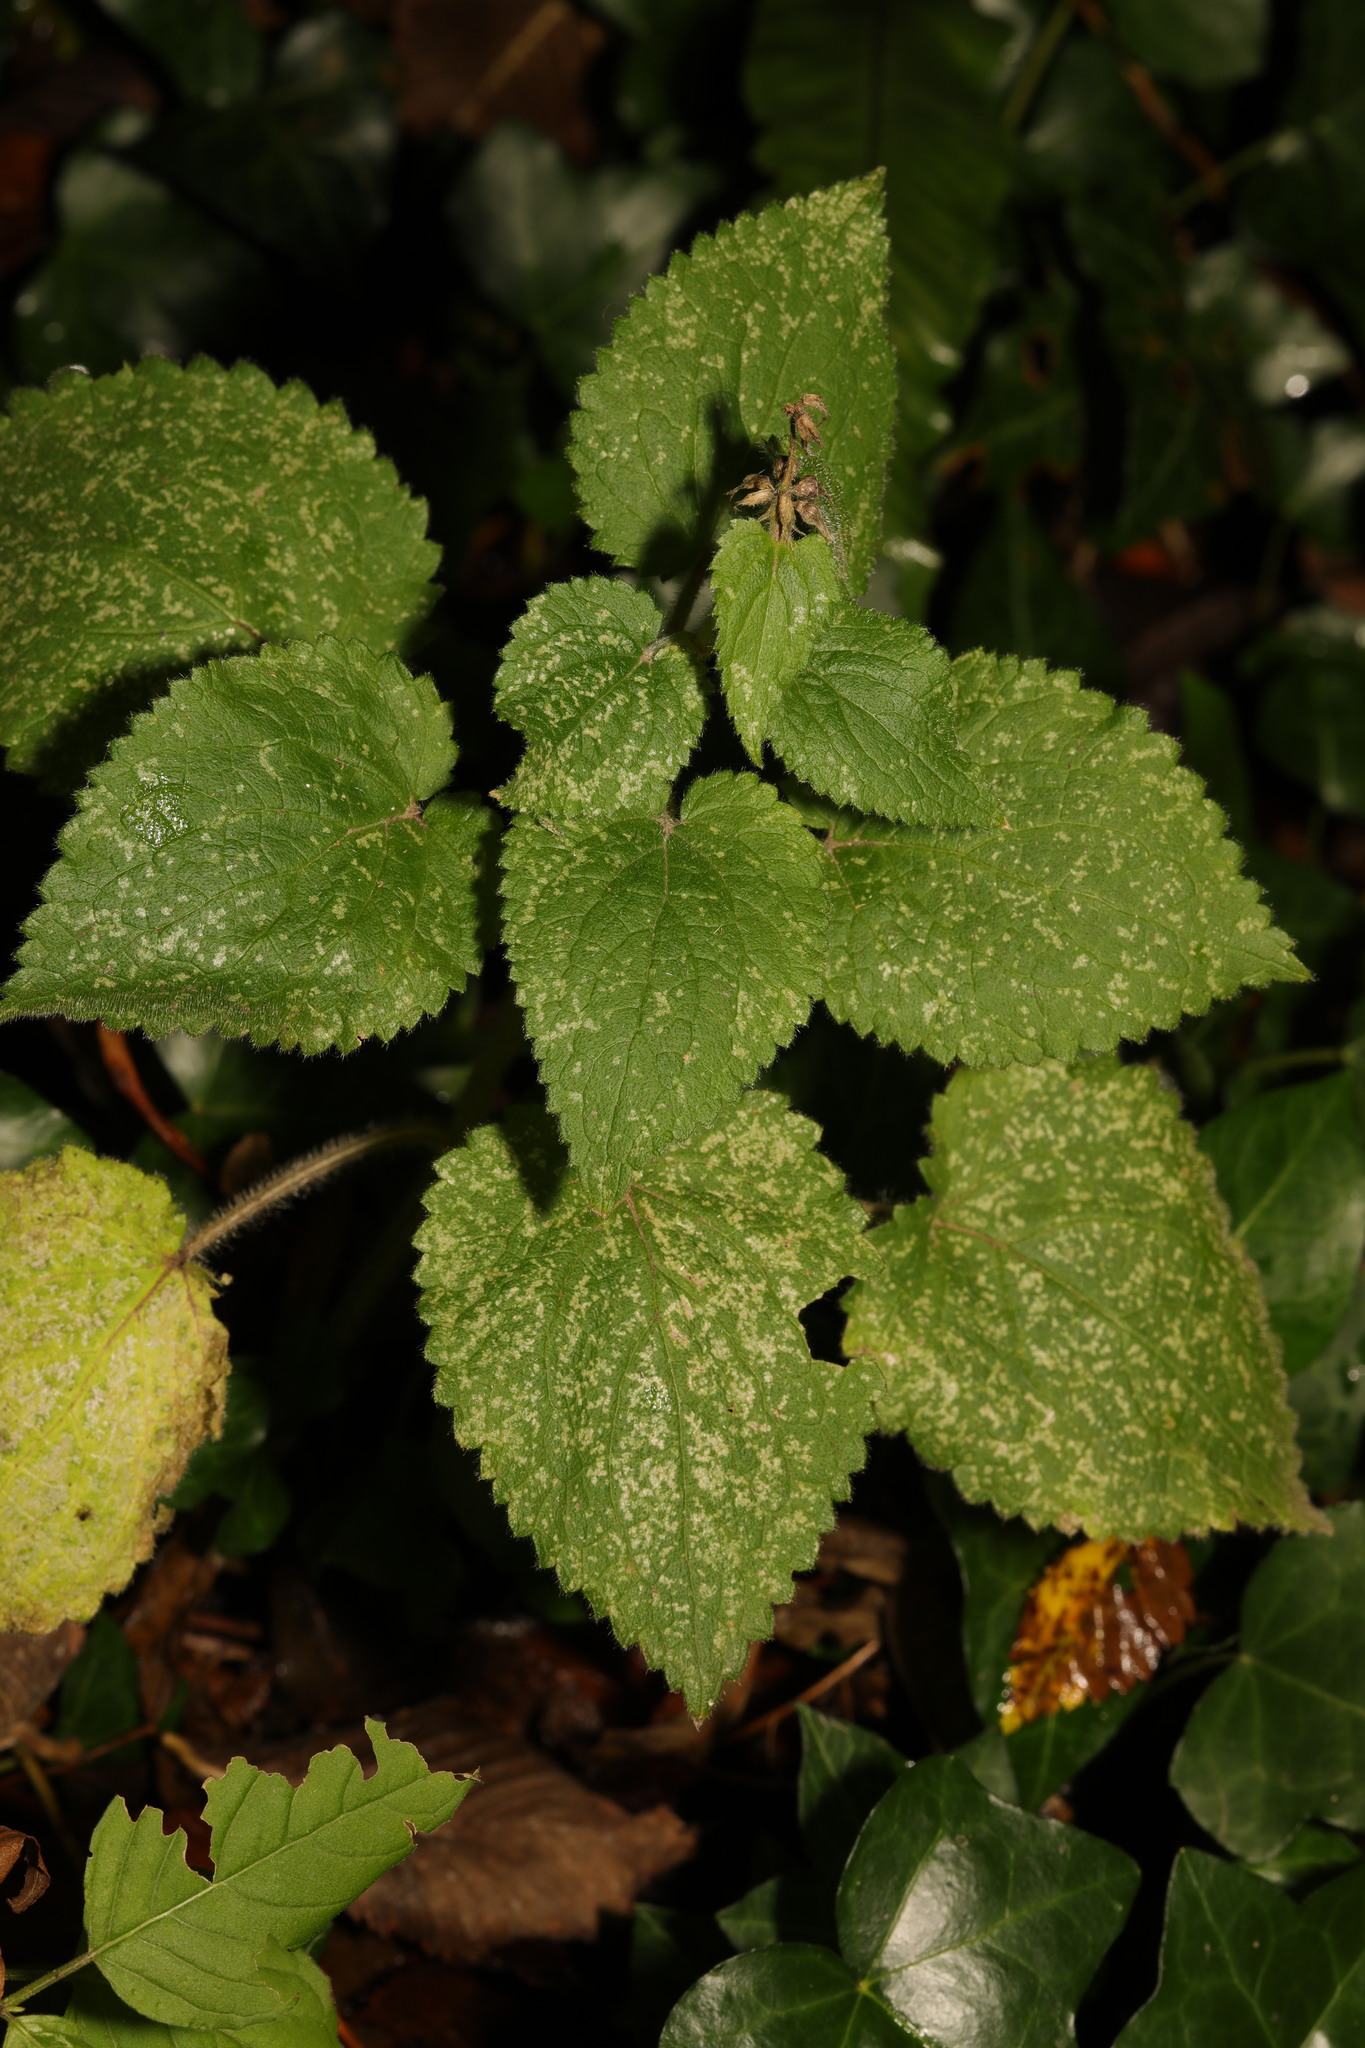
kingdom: Plantae
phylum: Tracheophyta
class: Magnoliopsida
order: Lamiales
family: Lamiaceae
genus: Stachys
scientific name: Stachys sylvatica
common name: Hedge woundwort
